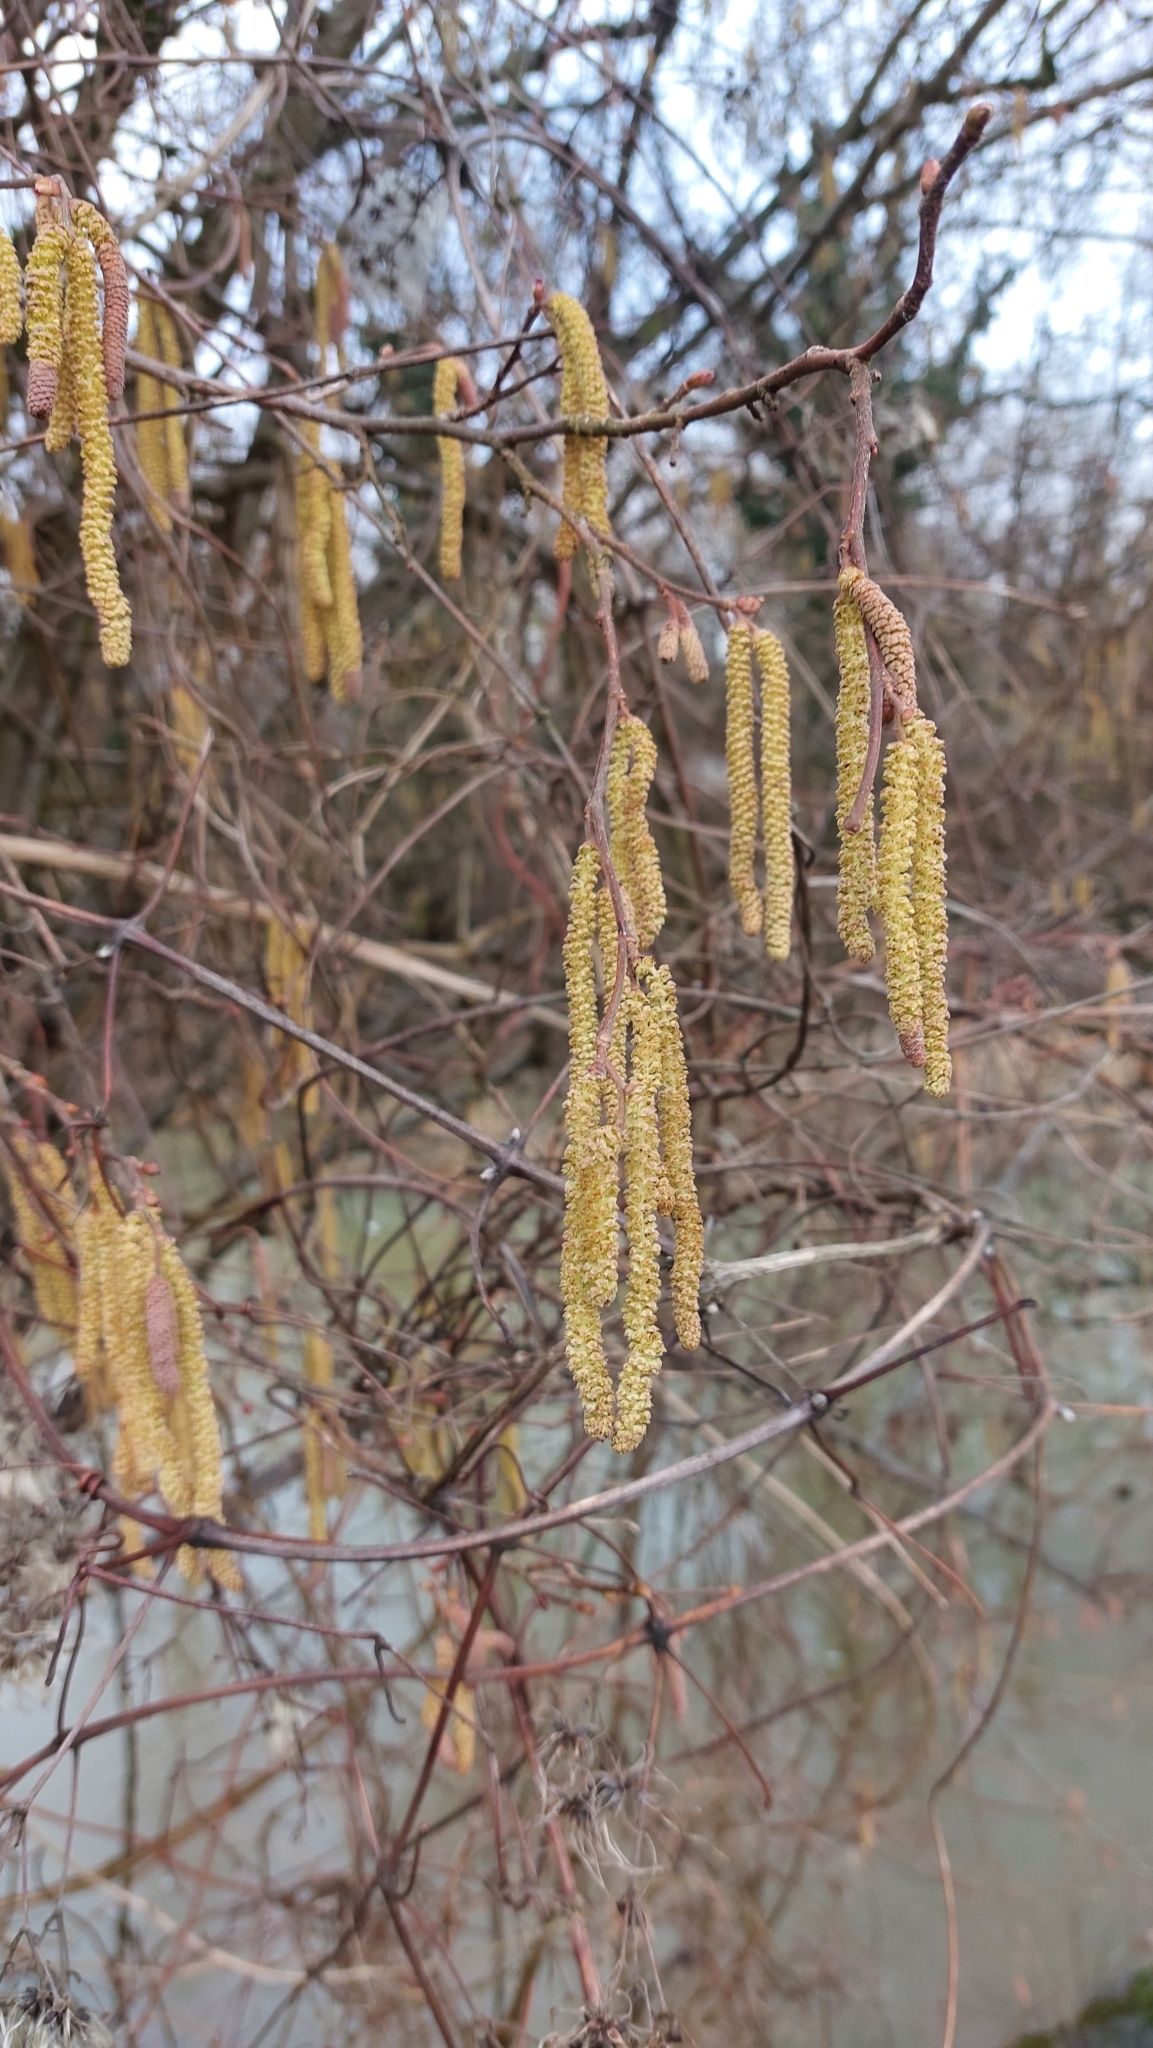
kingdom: Plantae
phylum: Tracheophyta
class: Magnoliopsida
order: Fagales
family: Betulaceae
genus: Corylus
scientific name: Corylus avellana
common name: European hazel
